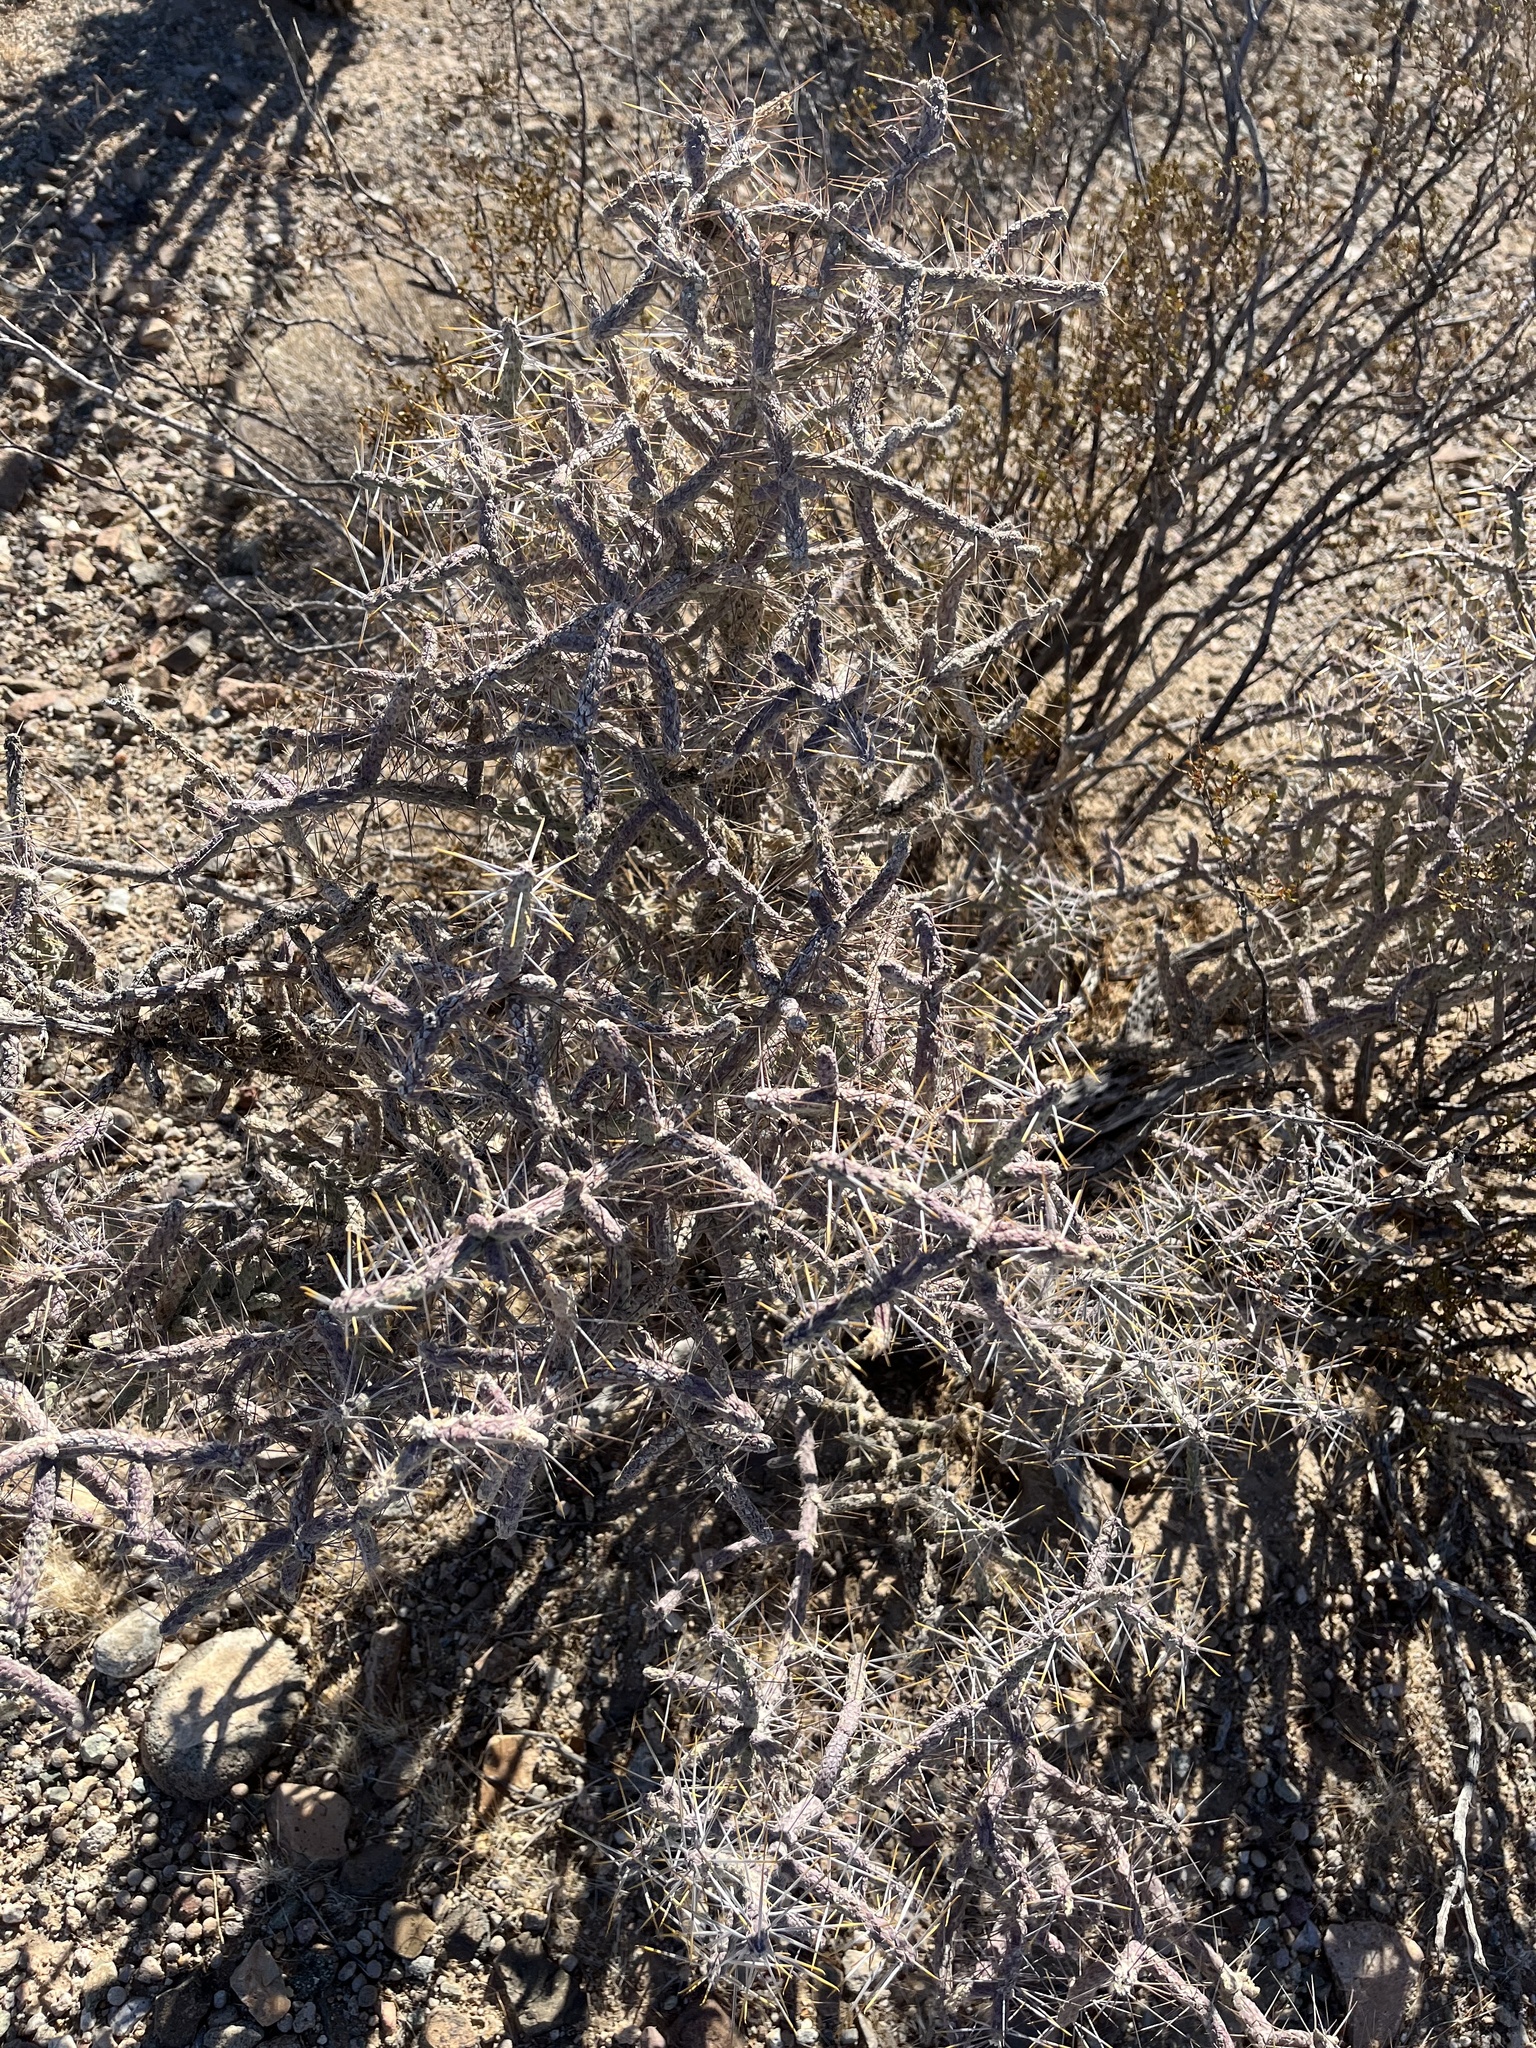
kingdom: Plantae
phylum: Tracheophyta
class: Magnoliopsida
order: Caryophyllales
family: Cactaceae
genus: Cylindropuntia
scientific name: Cylindropuntia ramosissima
